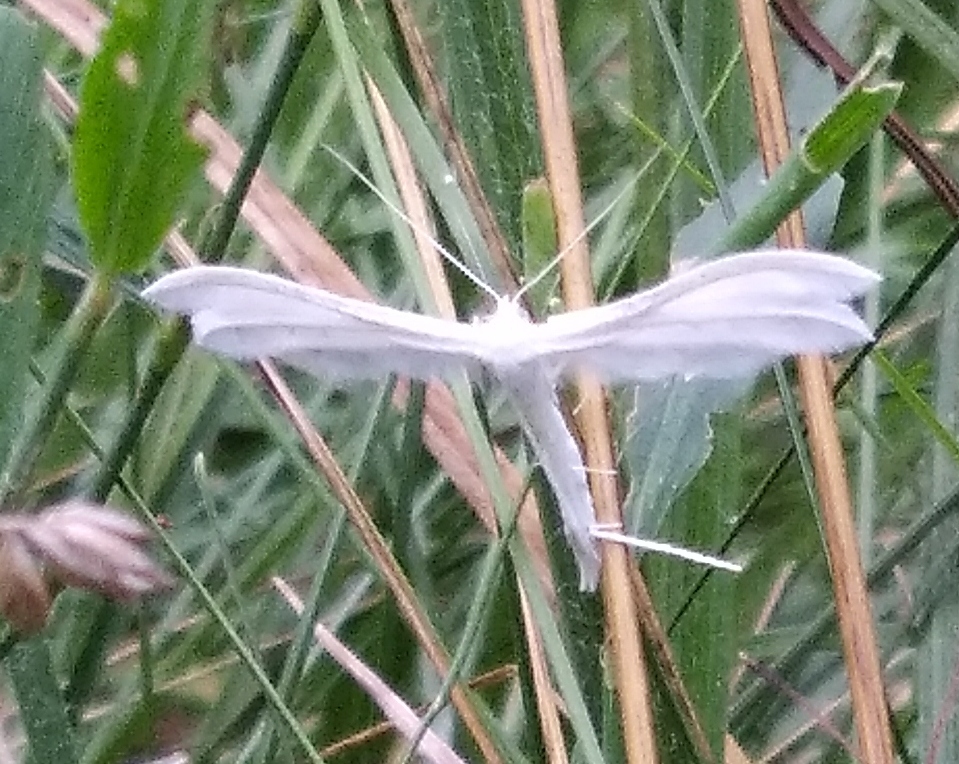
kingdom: Animalia
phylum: Arthropoda
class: Insecta
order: Lepidoptera
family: Pterophoridae
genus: Pterophorus
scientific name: Pterophorus pentadactyla
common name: White plume moth
